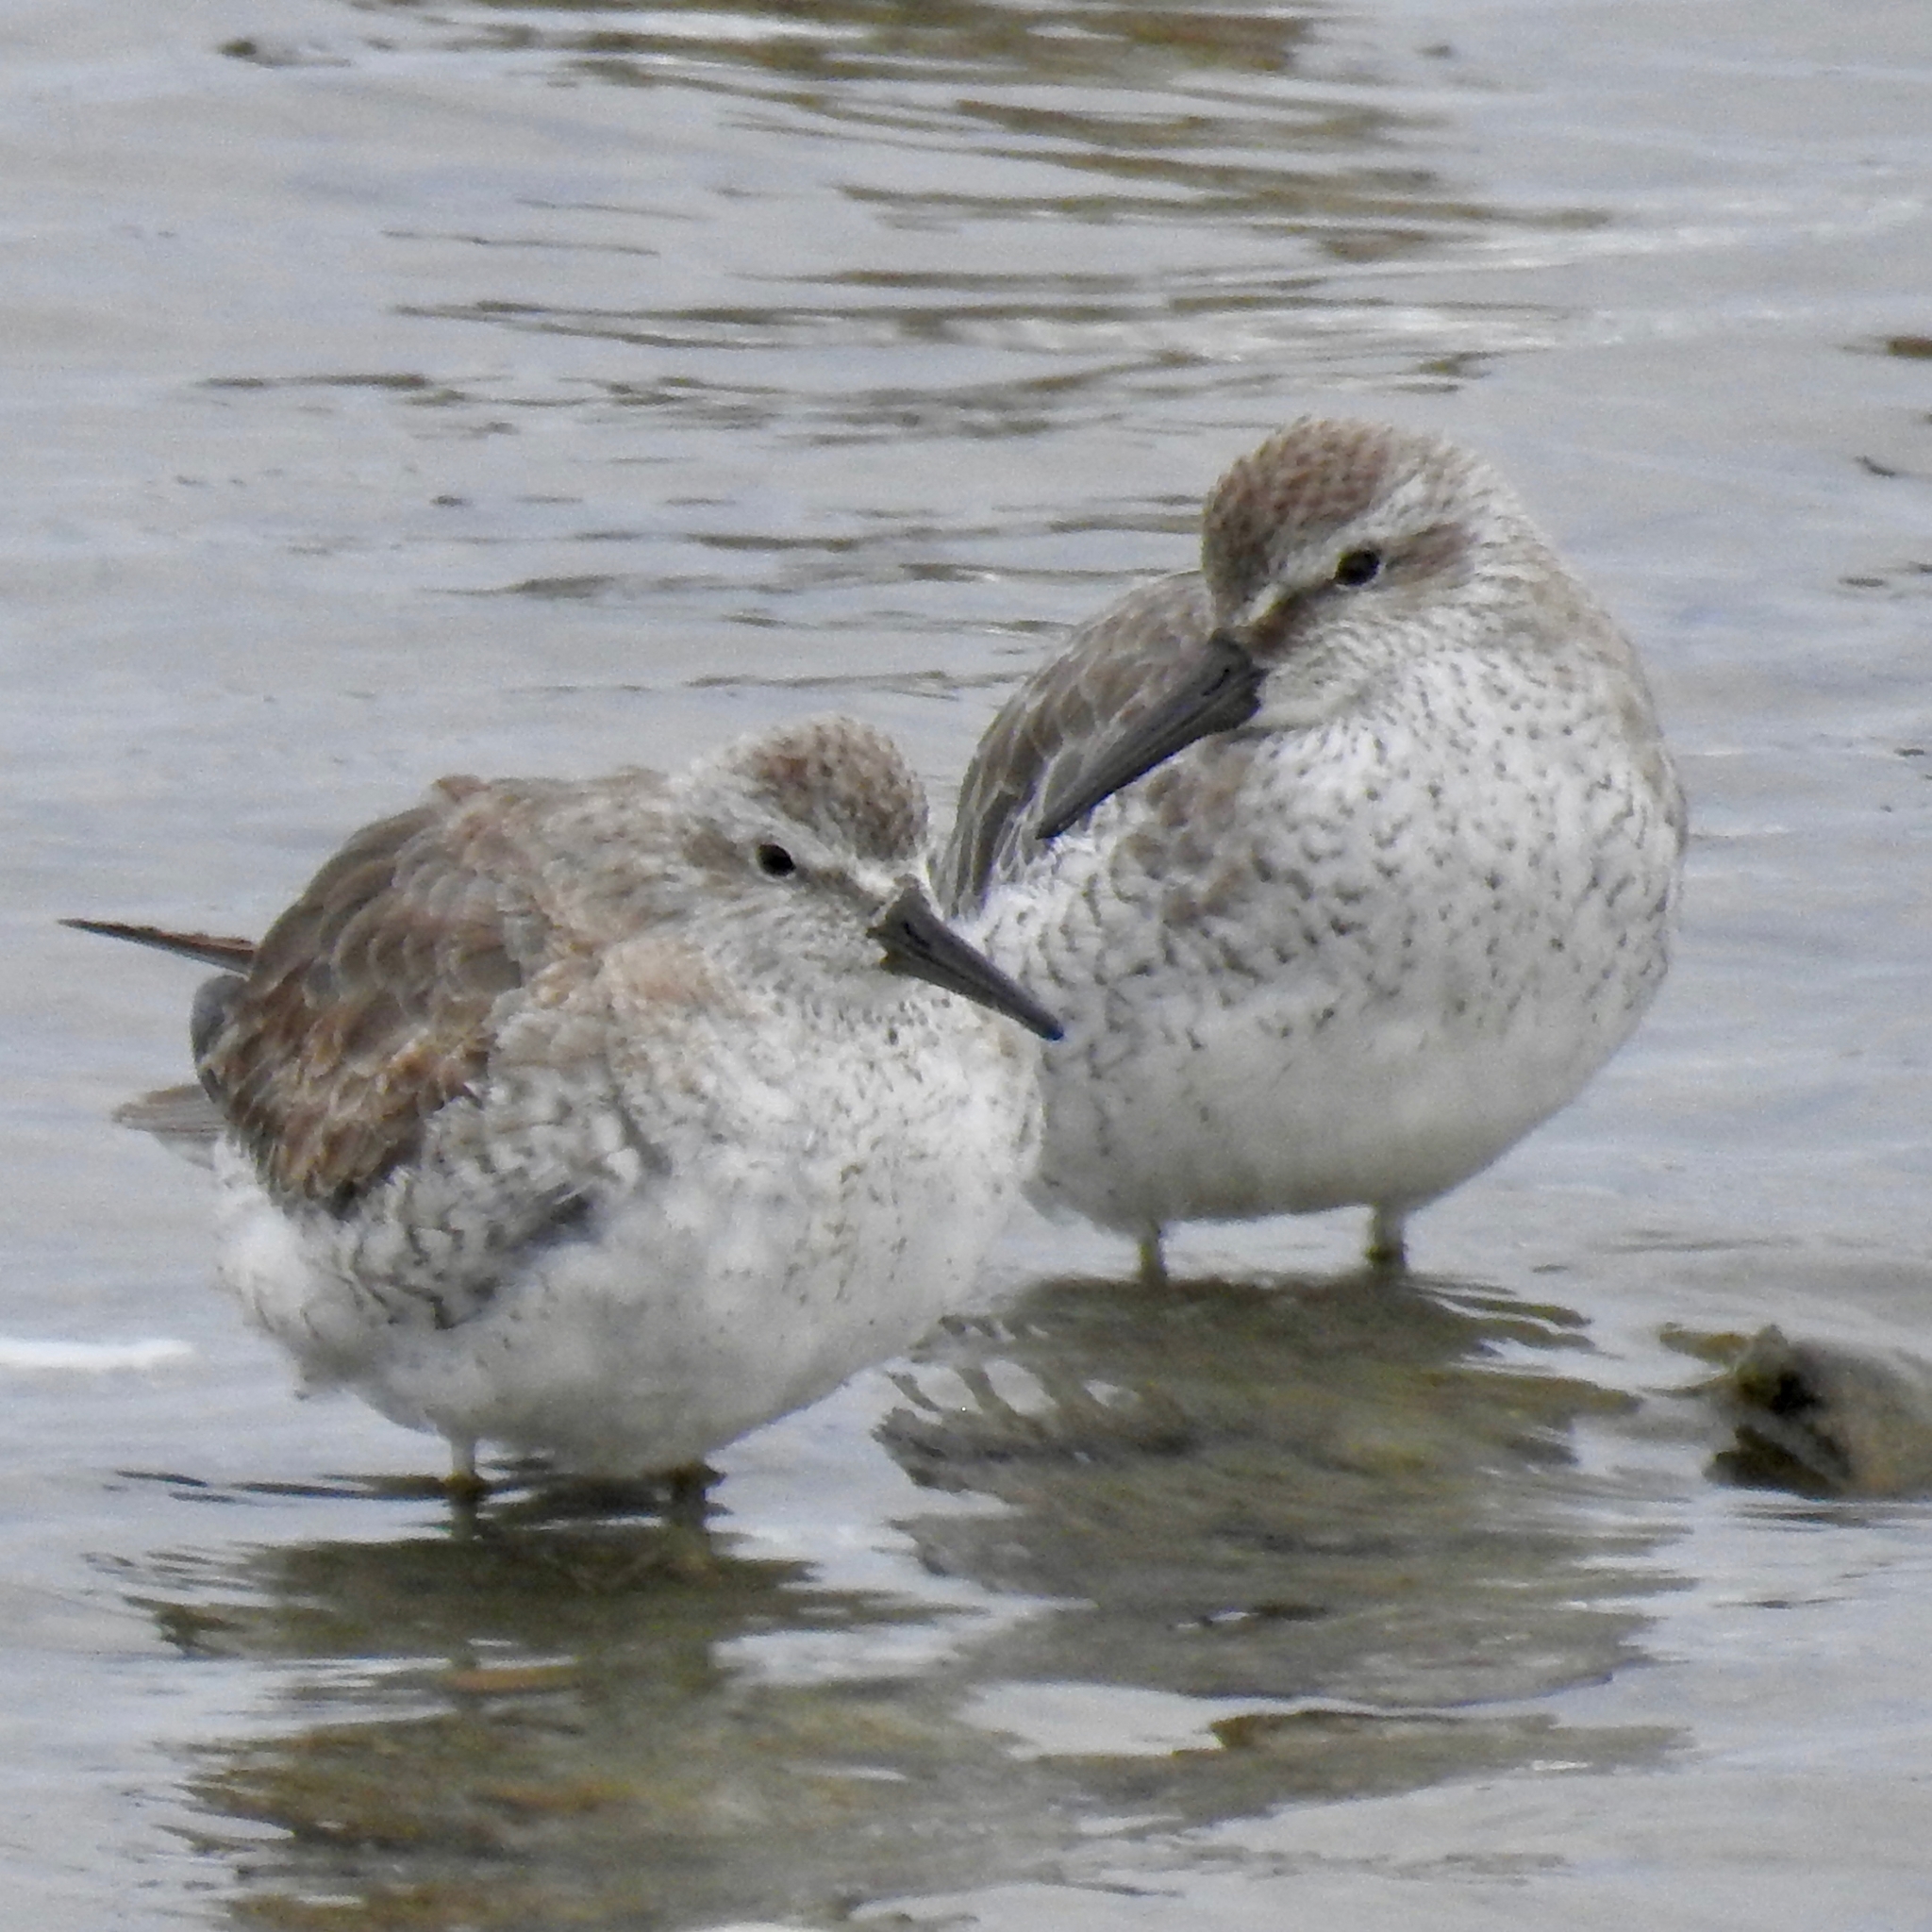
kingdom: Animalia
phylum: Chordata
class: Aves
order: Charadriiformes
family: Scolopacidae
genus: Calidris
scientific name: Calidris canutus
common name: Red knot
